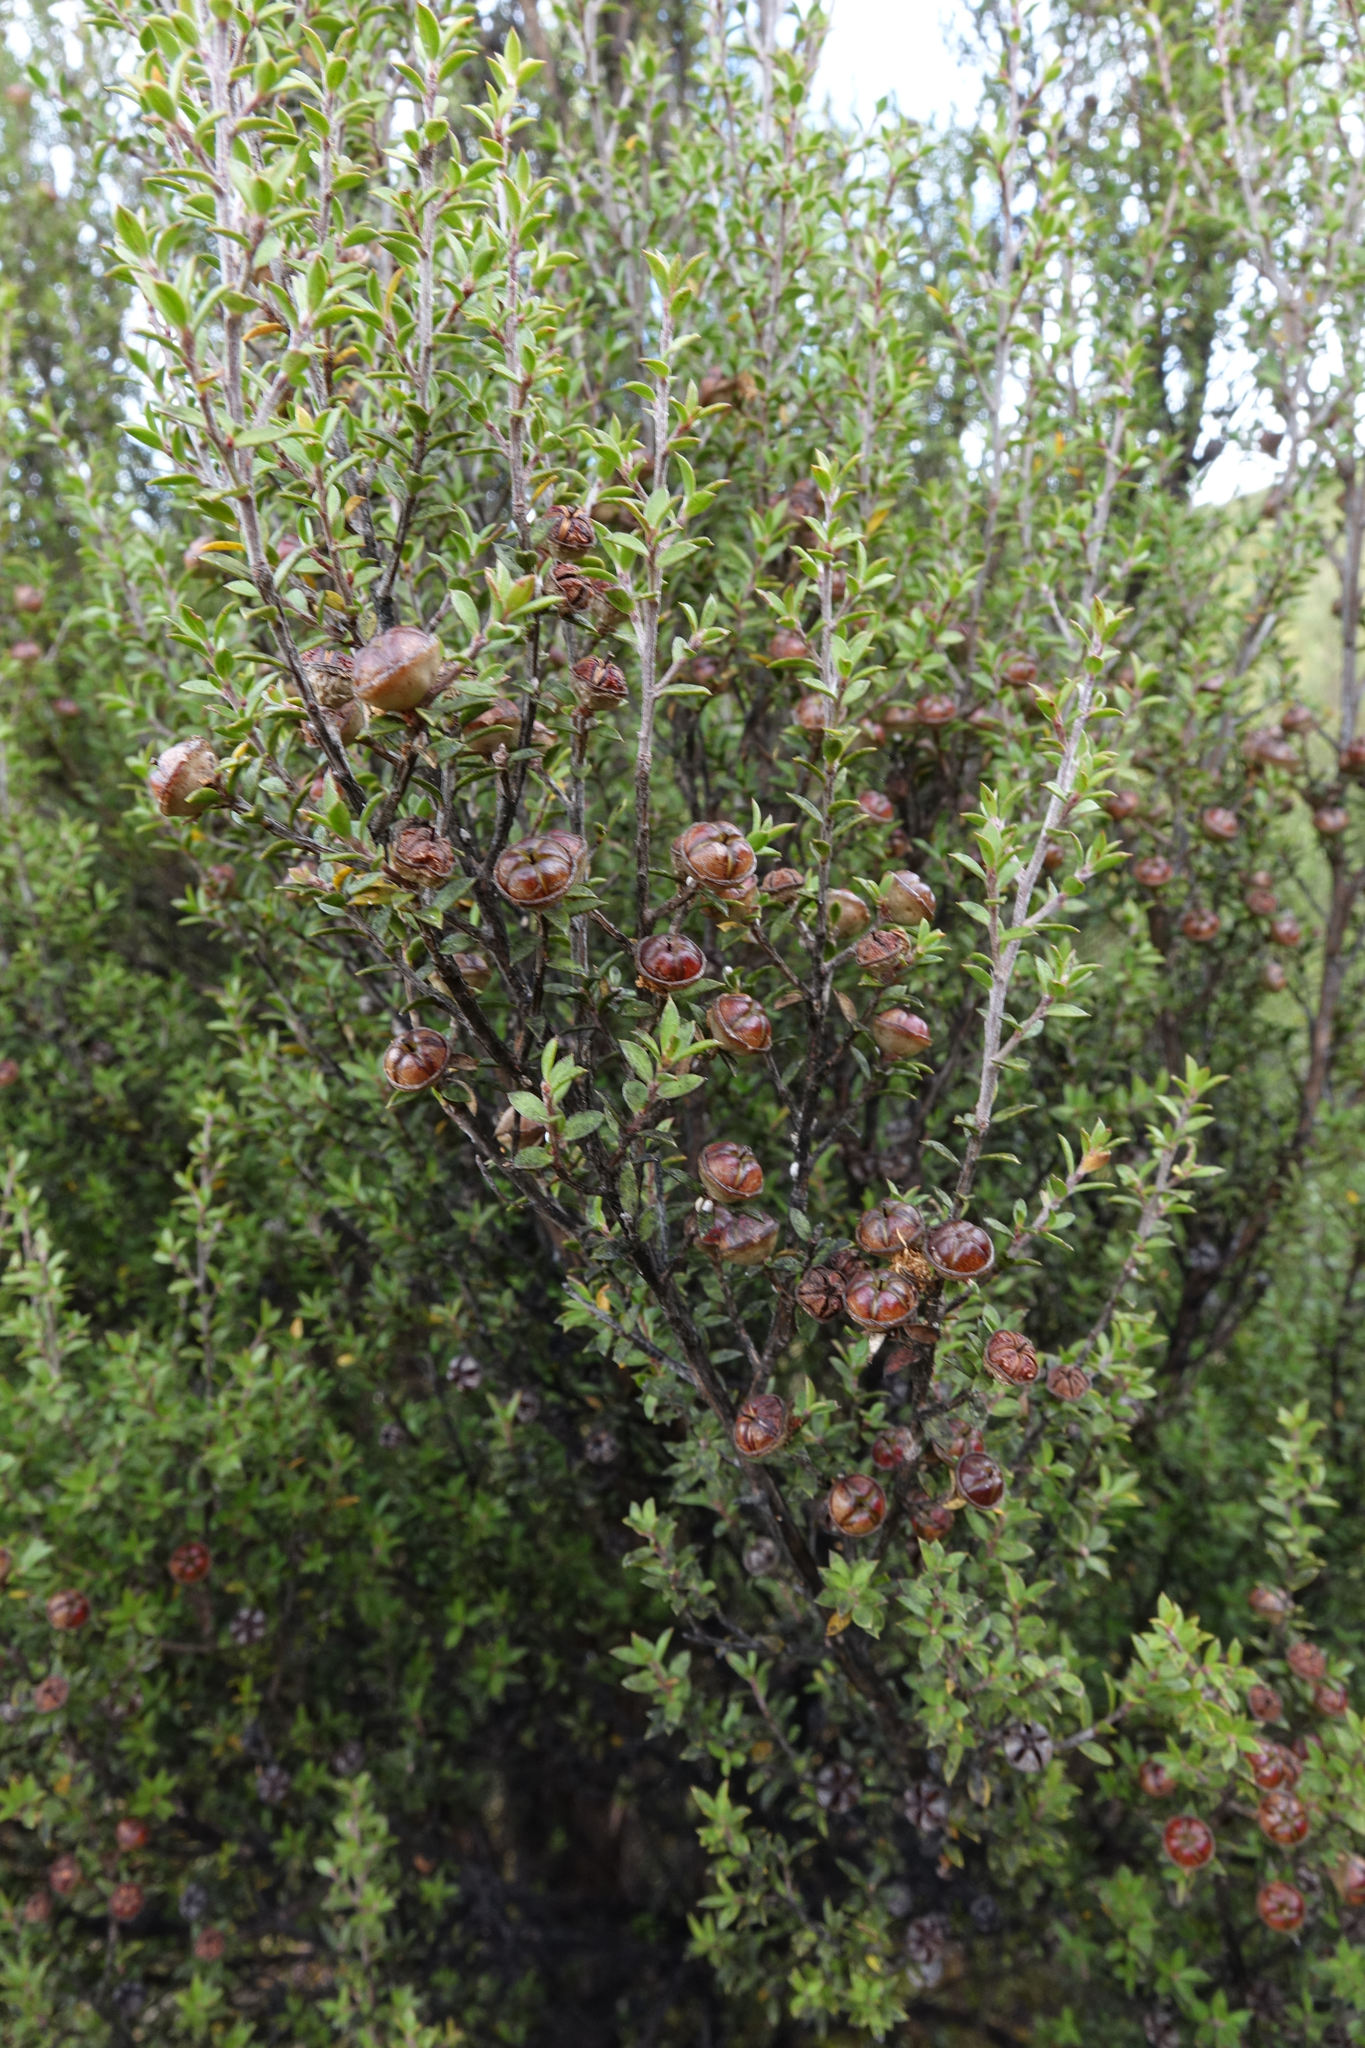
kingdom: Plantae
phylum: Tracheophyta
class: Magnoliopsida
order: Myrtales
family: Myrtaceae
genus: Leptospermum
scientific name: Leptospermum scoparium
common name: Broom tea-tree
